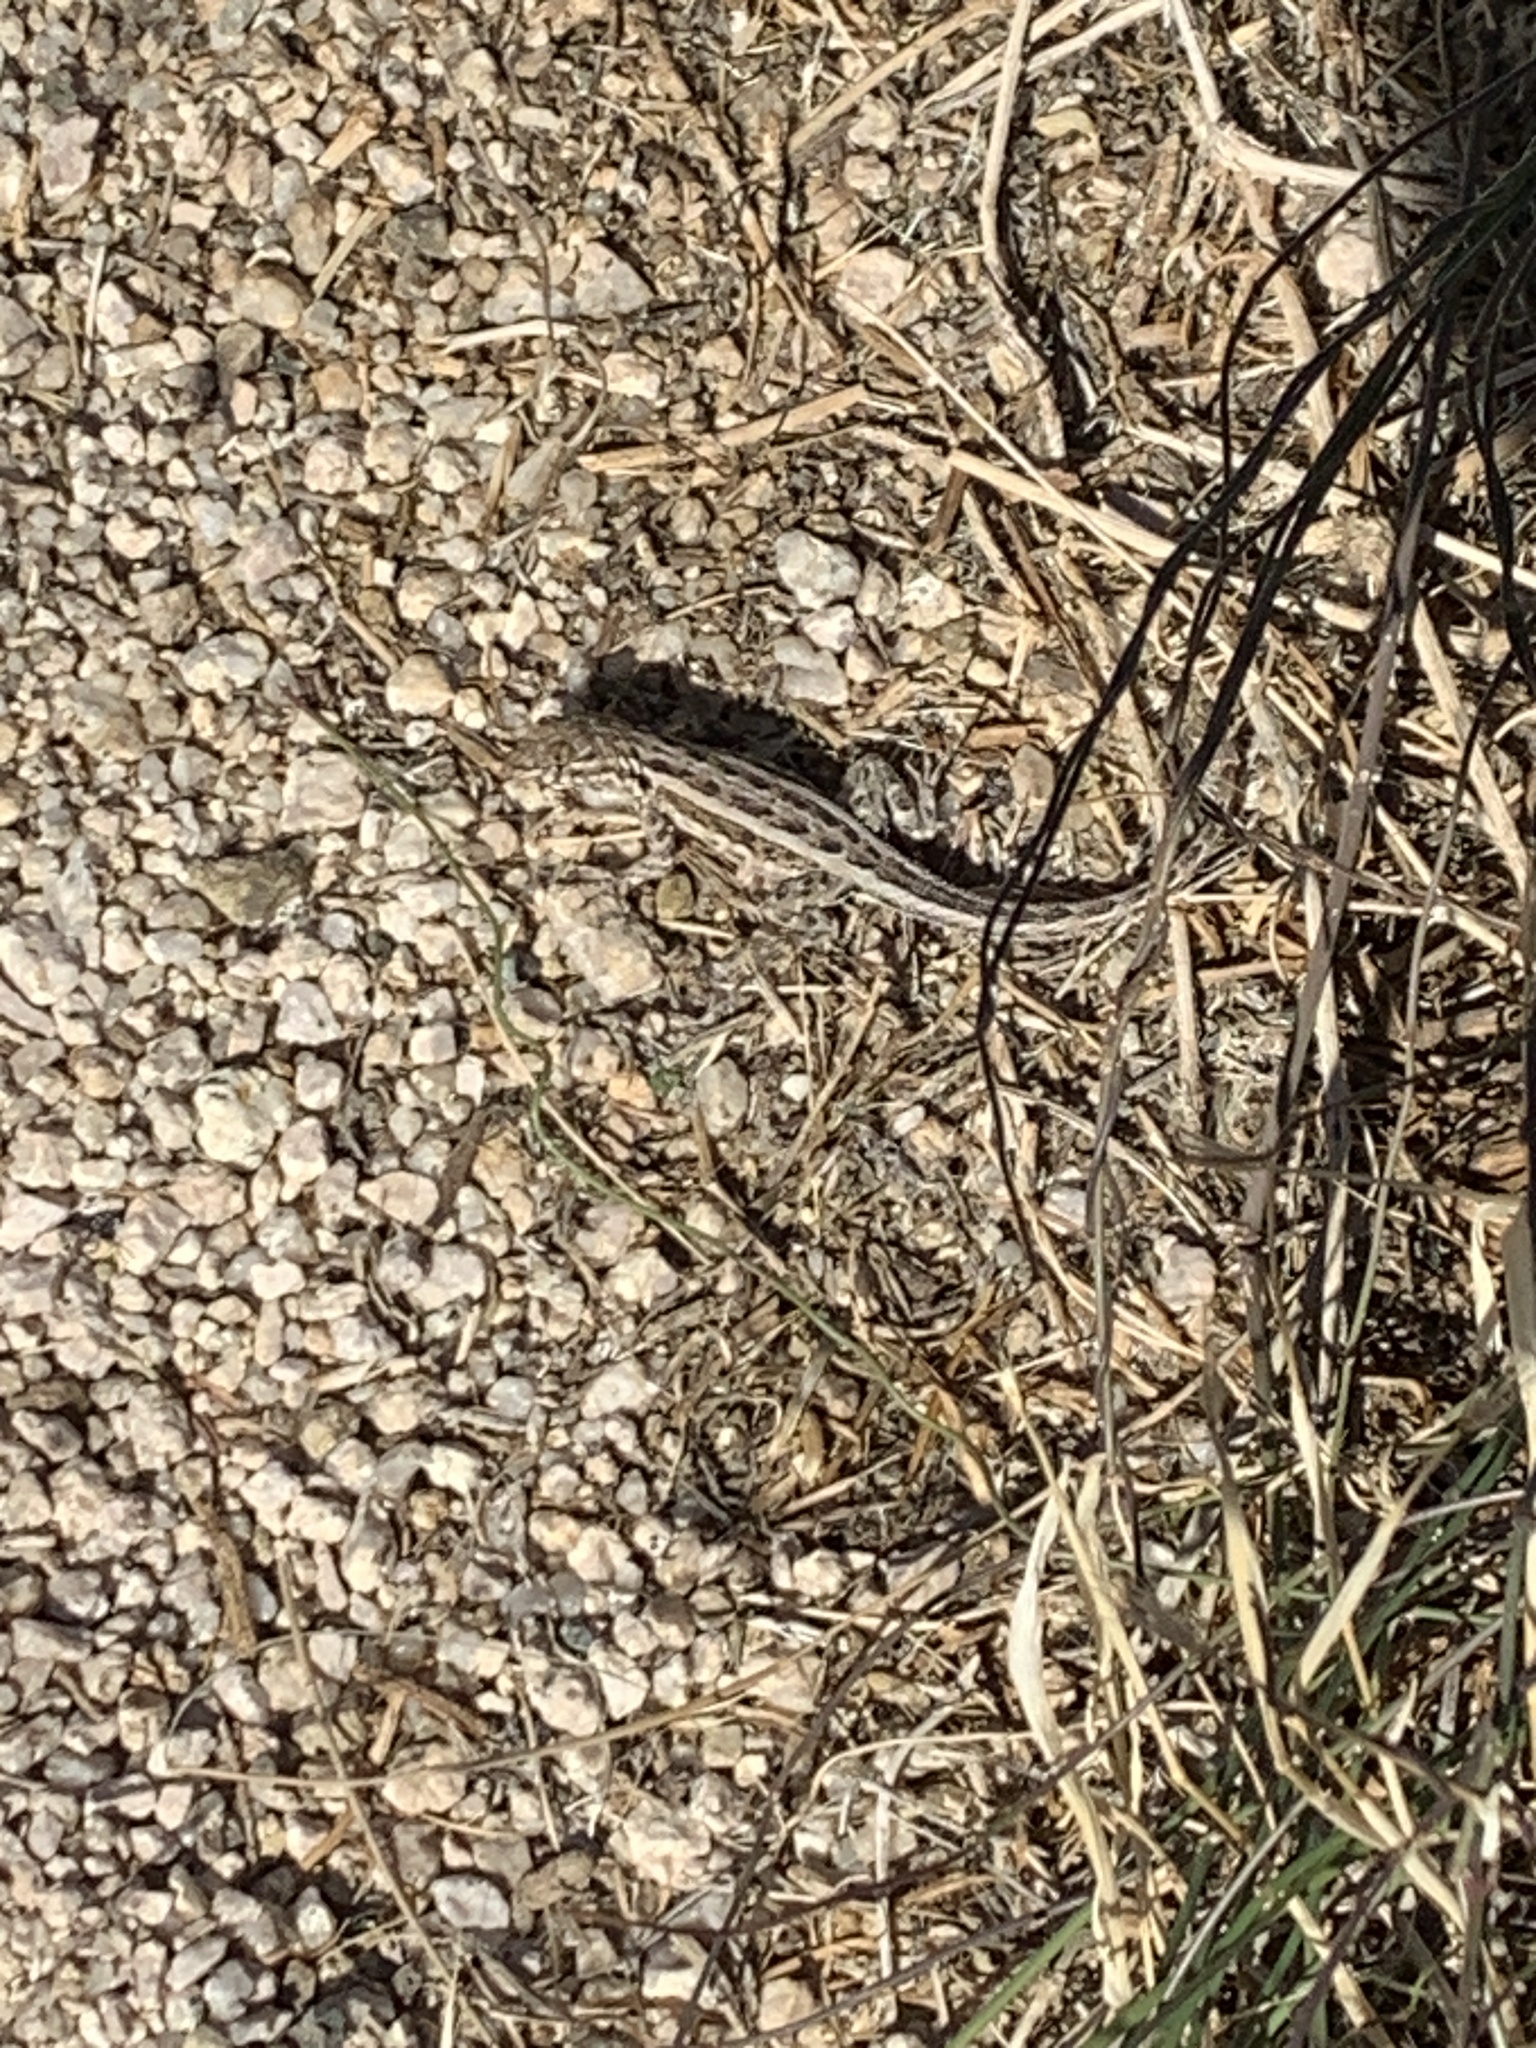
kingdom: Animalia
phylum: Chordata
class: Squamata
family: Phrynosomatidae
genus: Uta
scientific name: Uta stansburiana
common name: Side-blotched lizard
